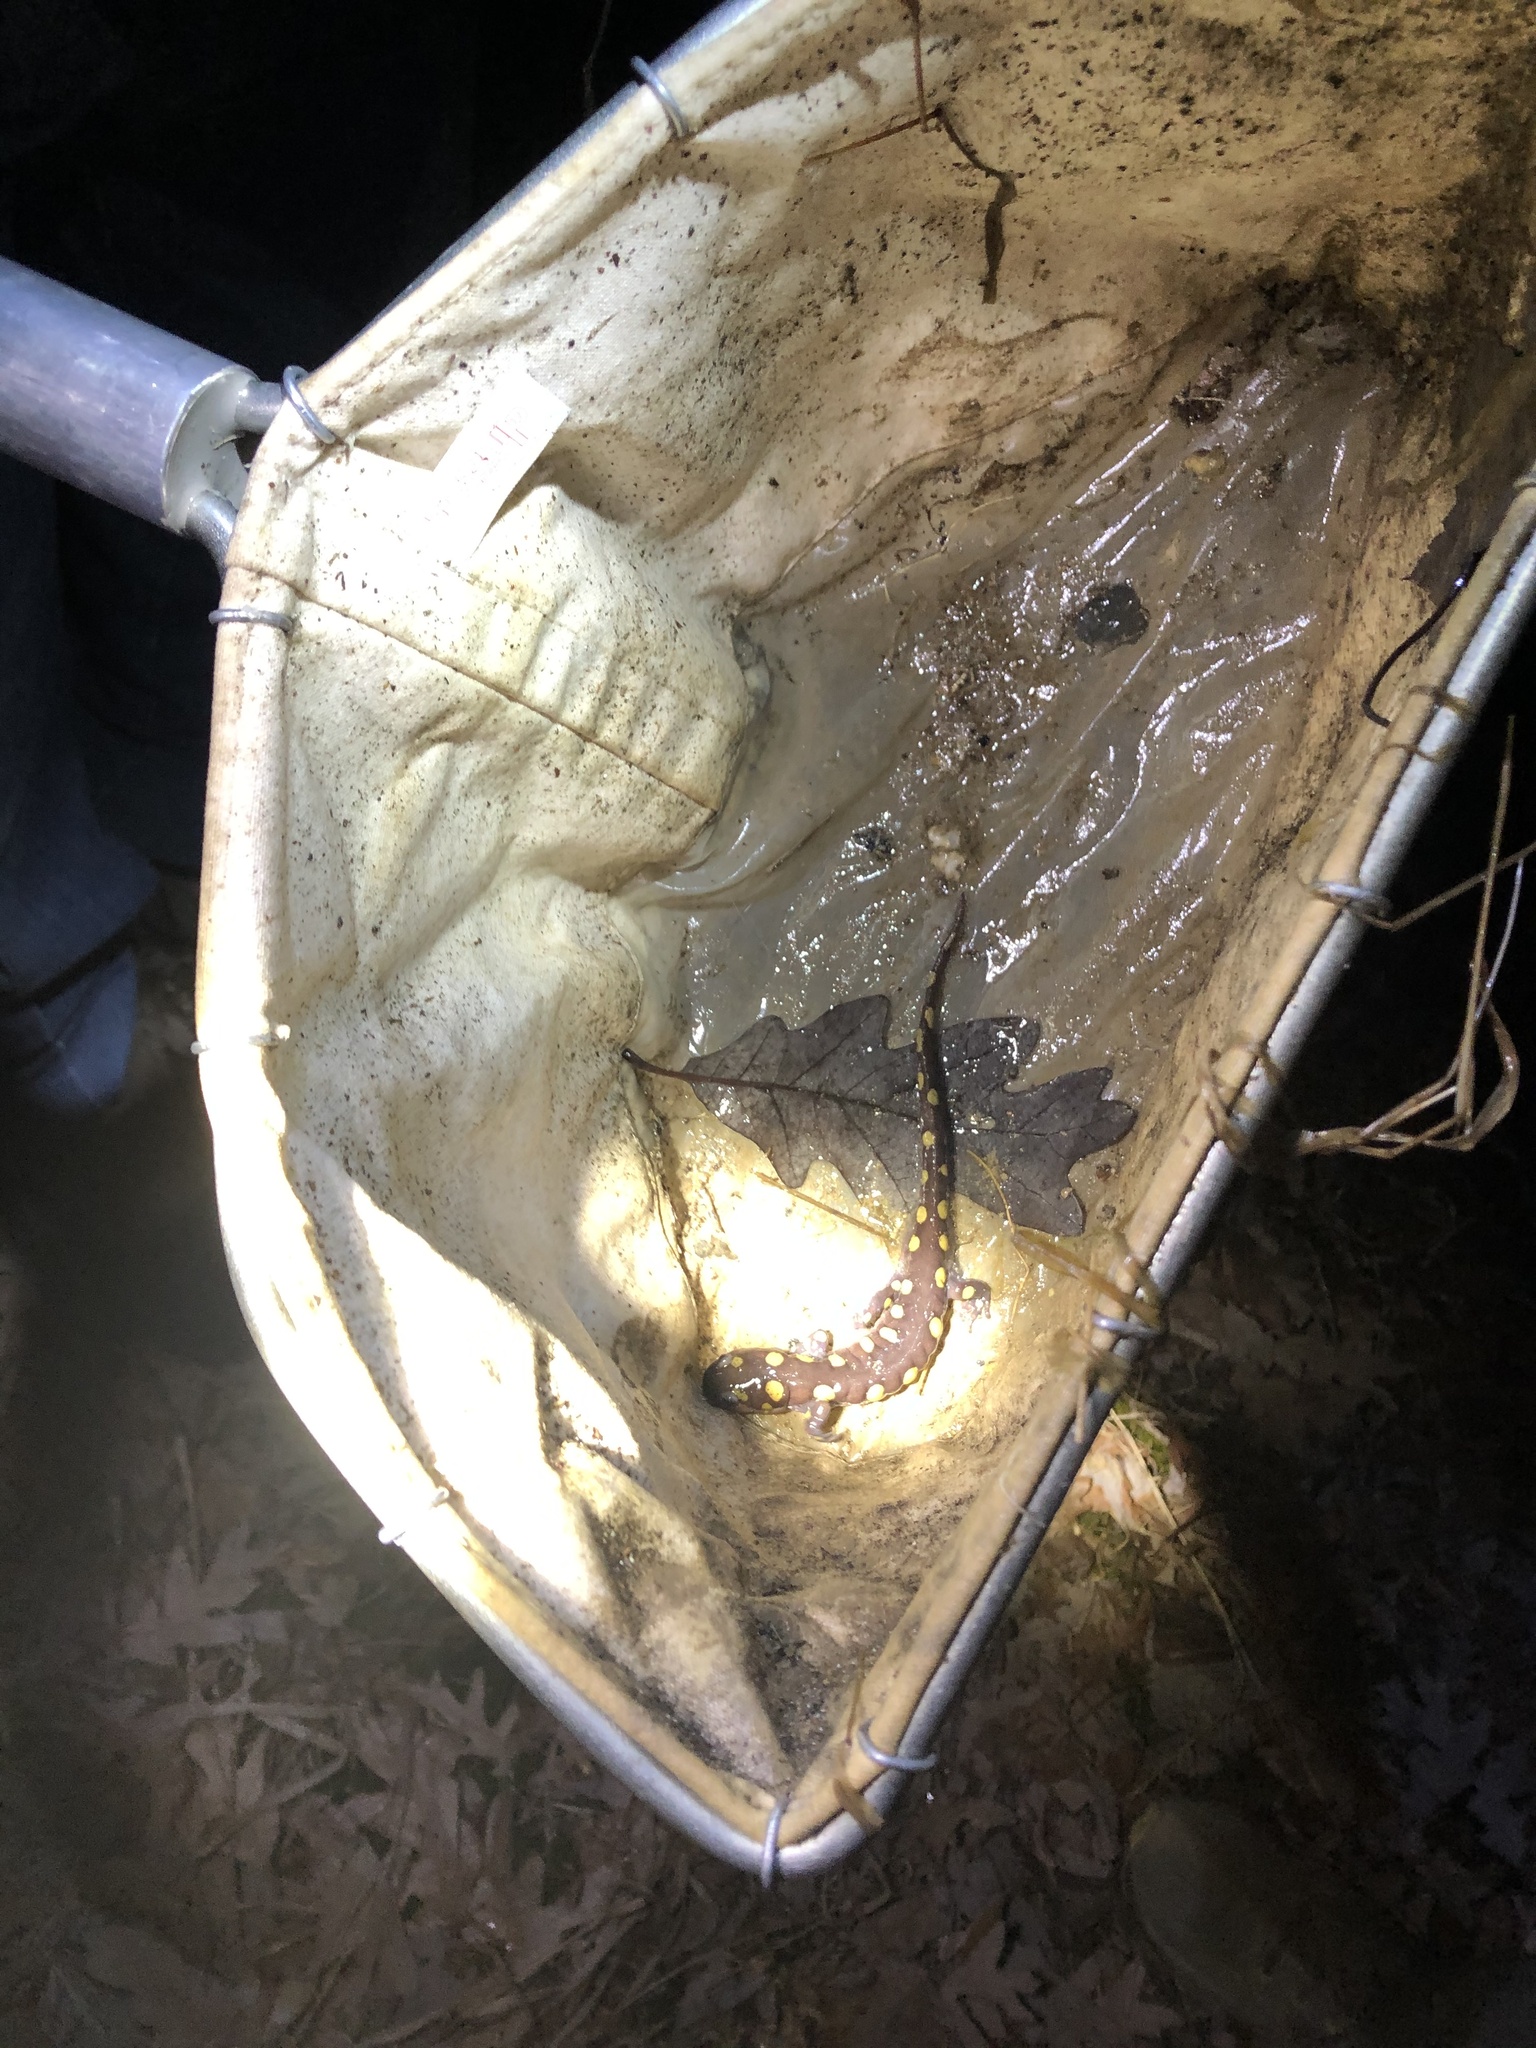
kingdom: Animalia
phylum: Chordata
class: Amphibia
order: Caudata
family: Ambystomatidae
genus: Ambystoma
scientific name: Ambystoma maculatum
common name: Spotted salamander
